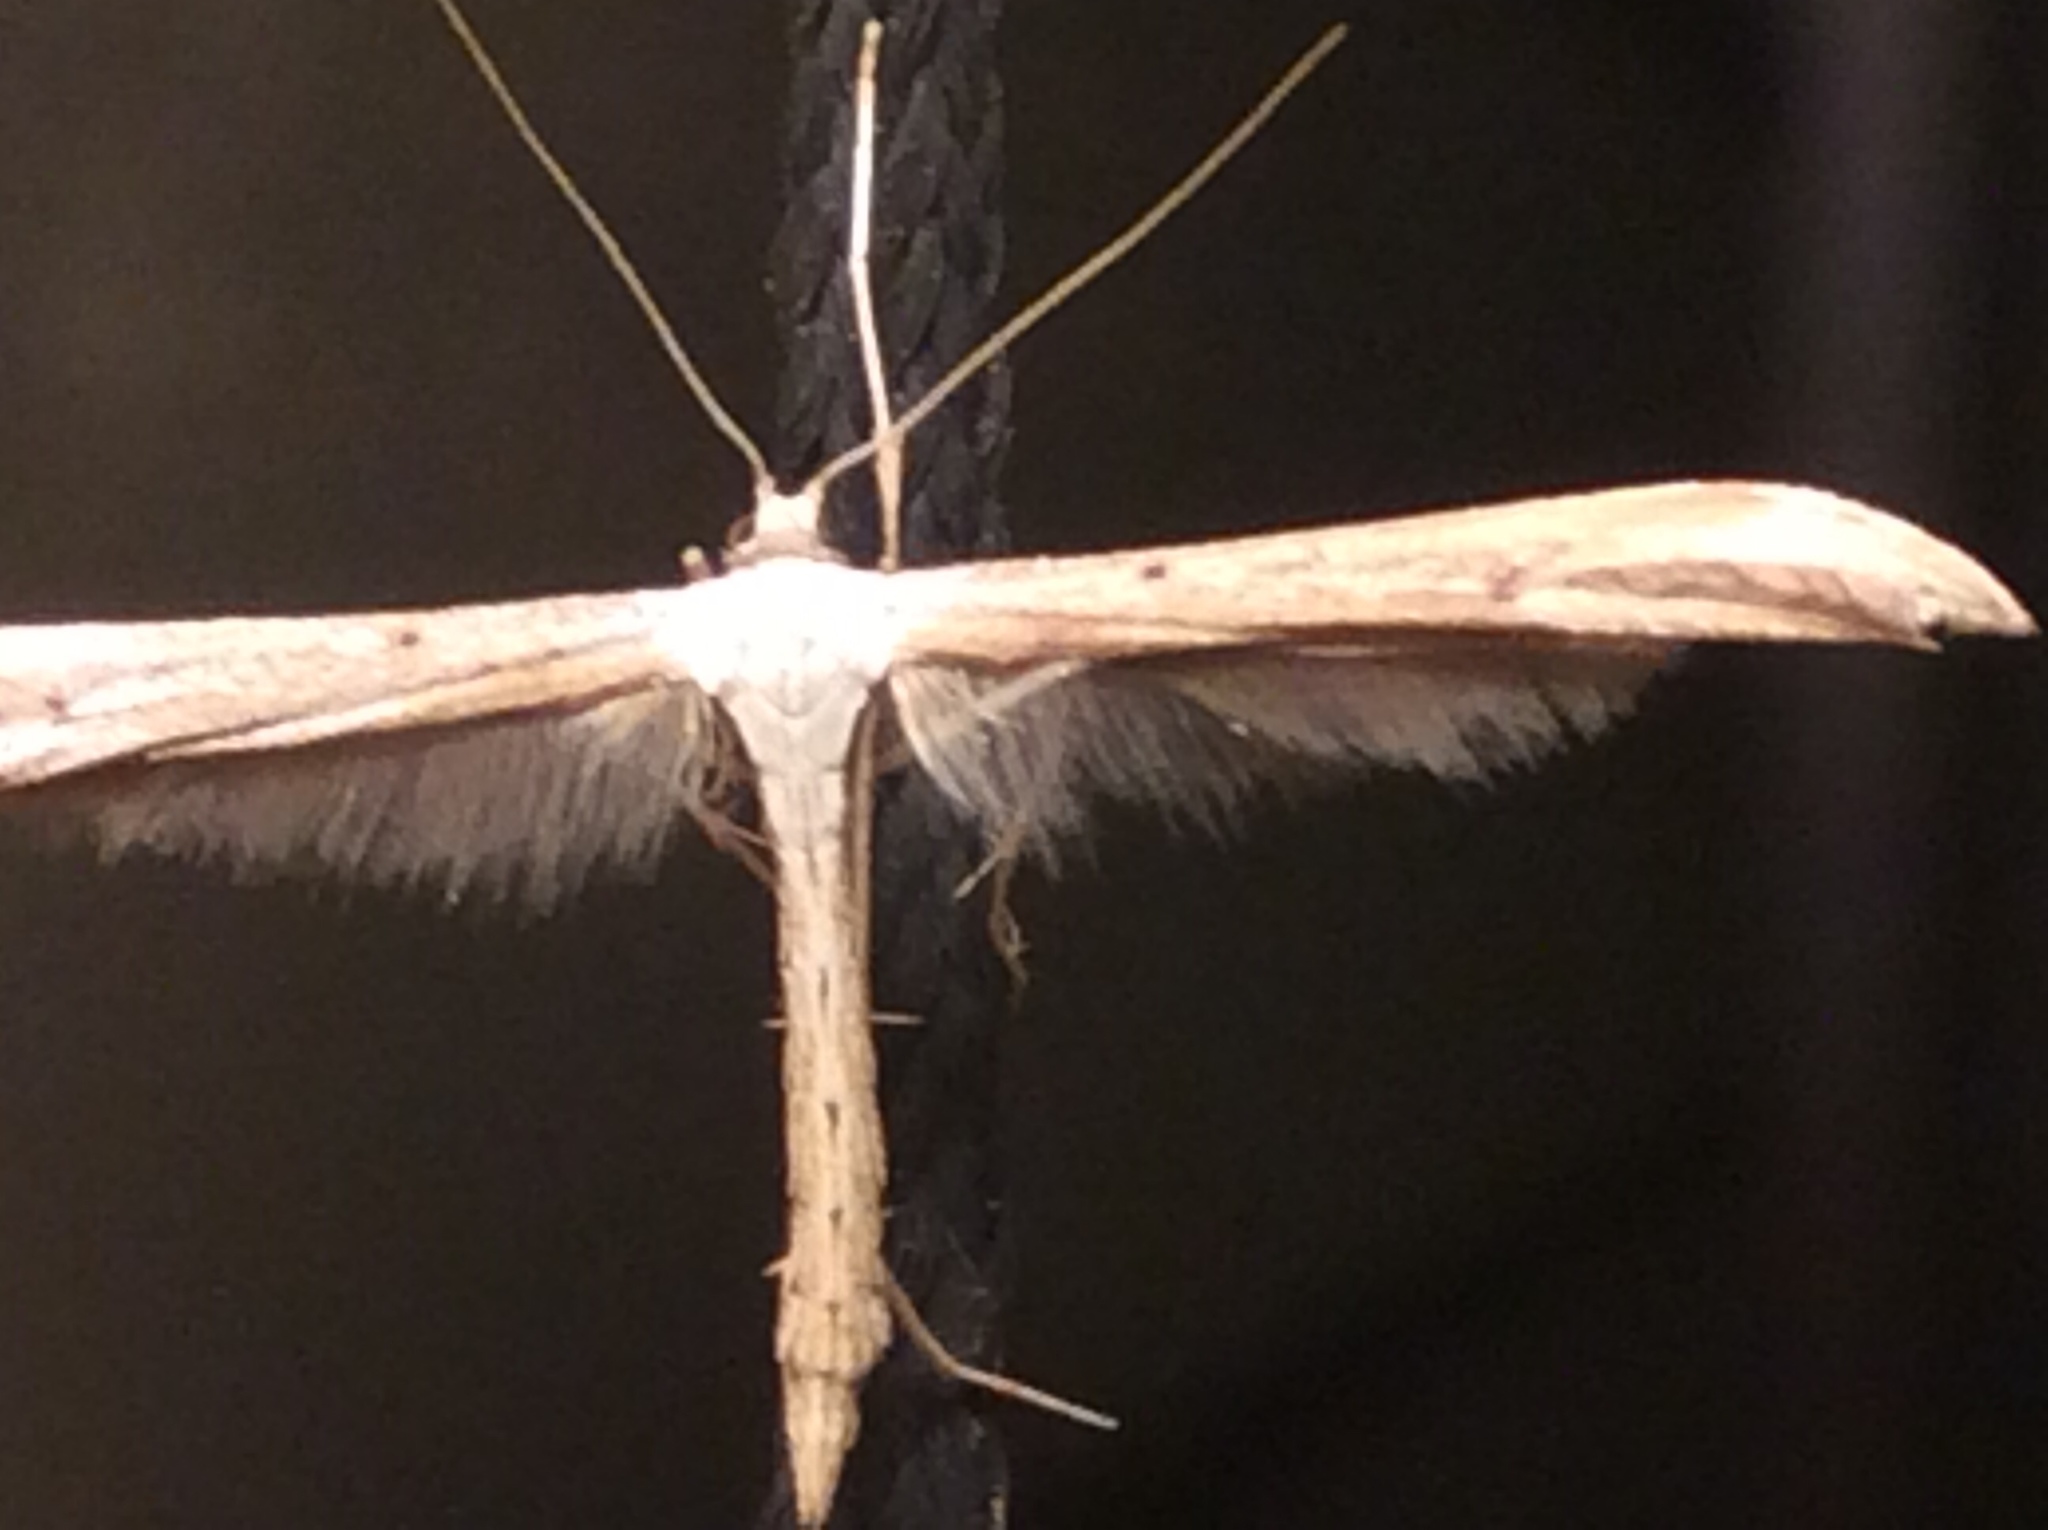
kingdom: Animalia
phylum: Arthropoda
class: Insecta
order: Lepidoptera
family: Pterophoridae
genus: Emmelina
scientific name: Emmelina monodactyla
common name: Common plume
